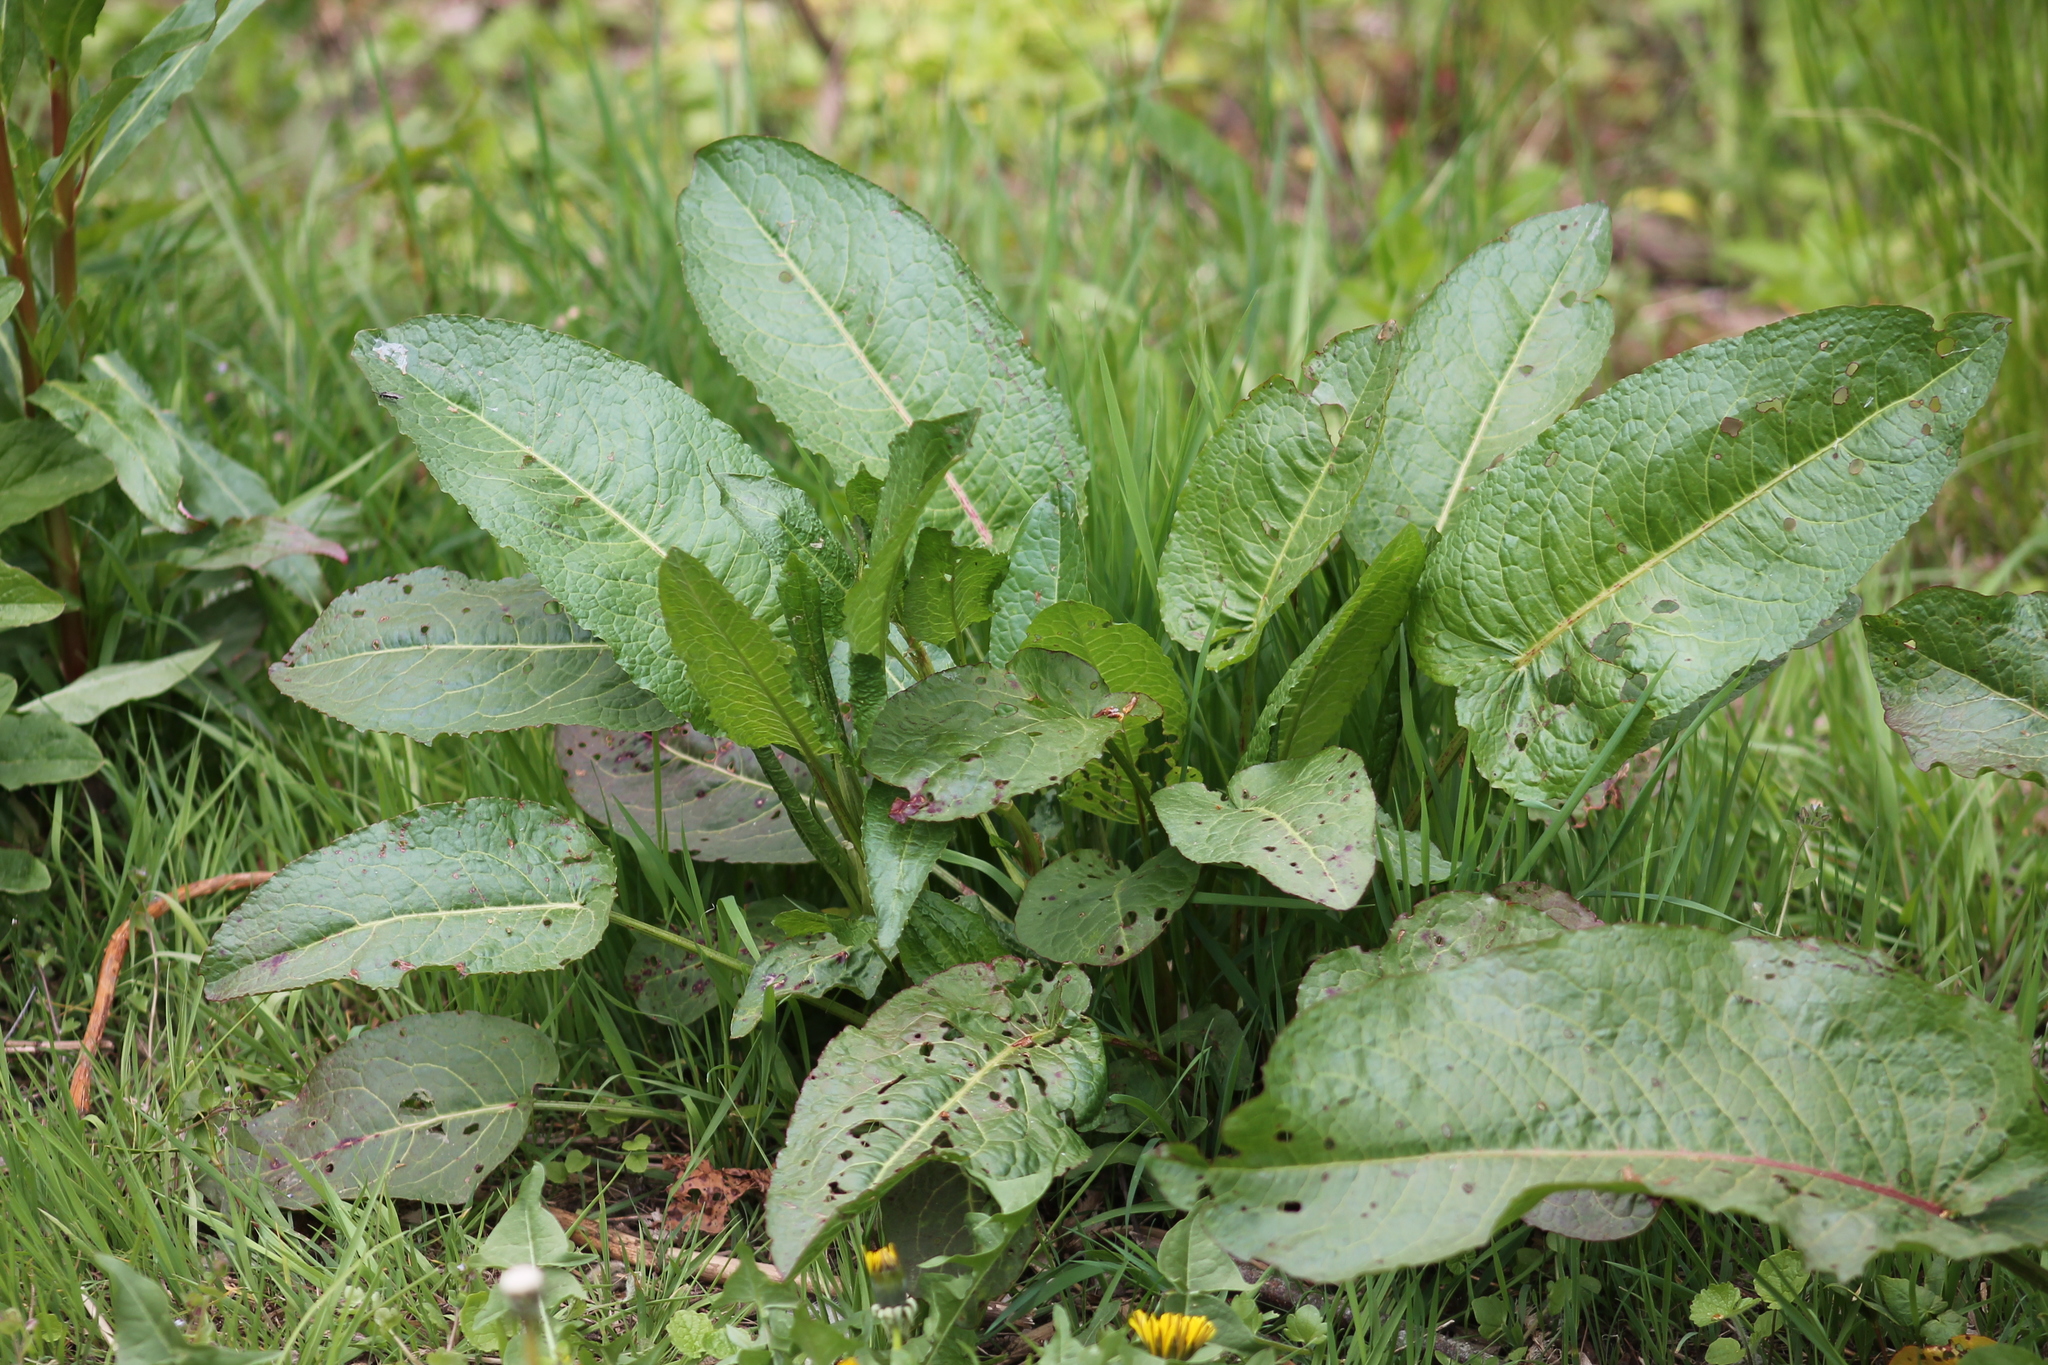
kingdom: Plantae
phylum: Tracheophyta
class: Magnoliopsida
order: Caryophyllales
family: Polygonaceae
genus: Rumex
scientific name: Rumex obtusifolius
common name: Bitter dock
